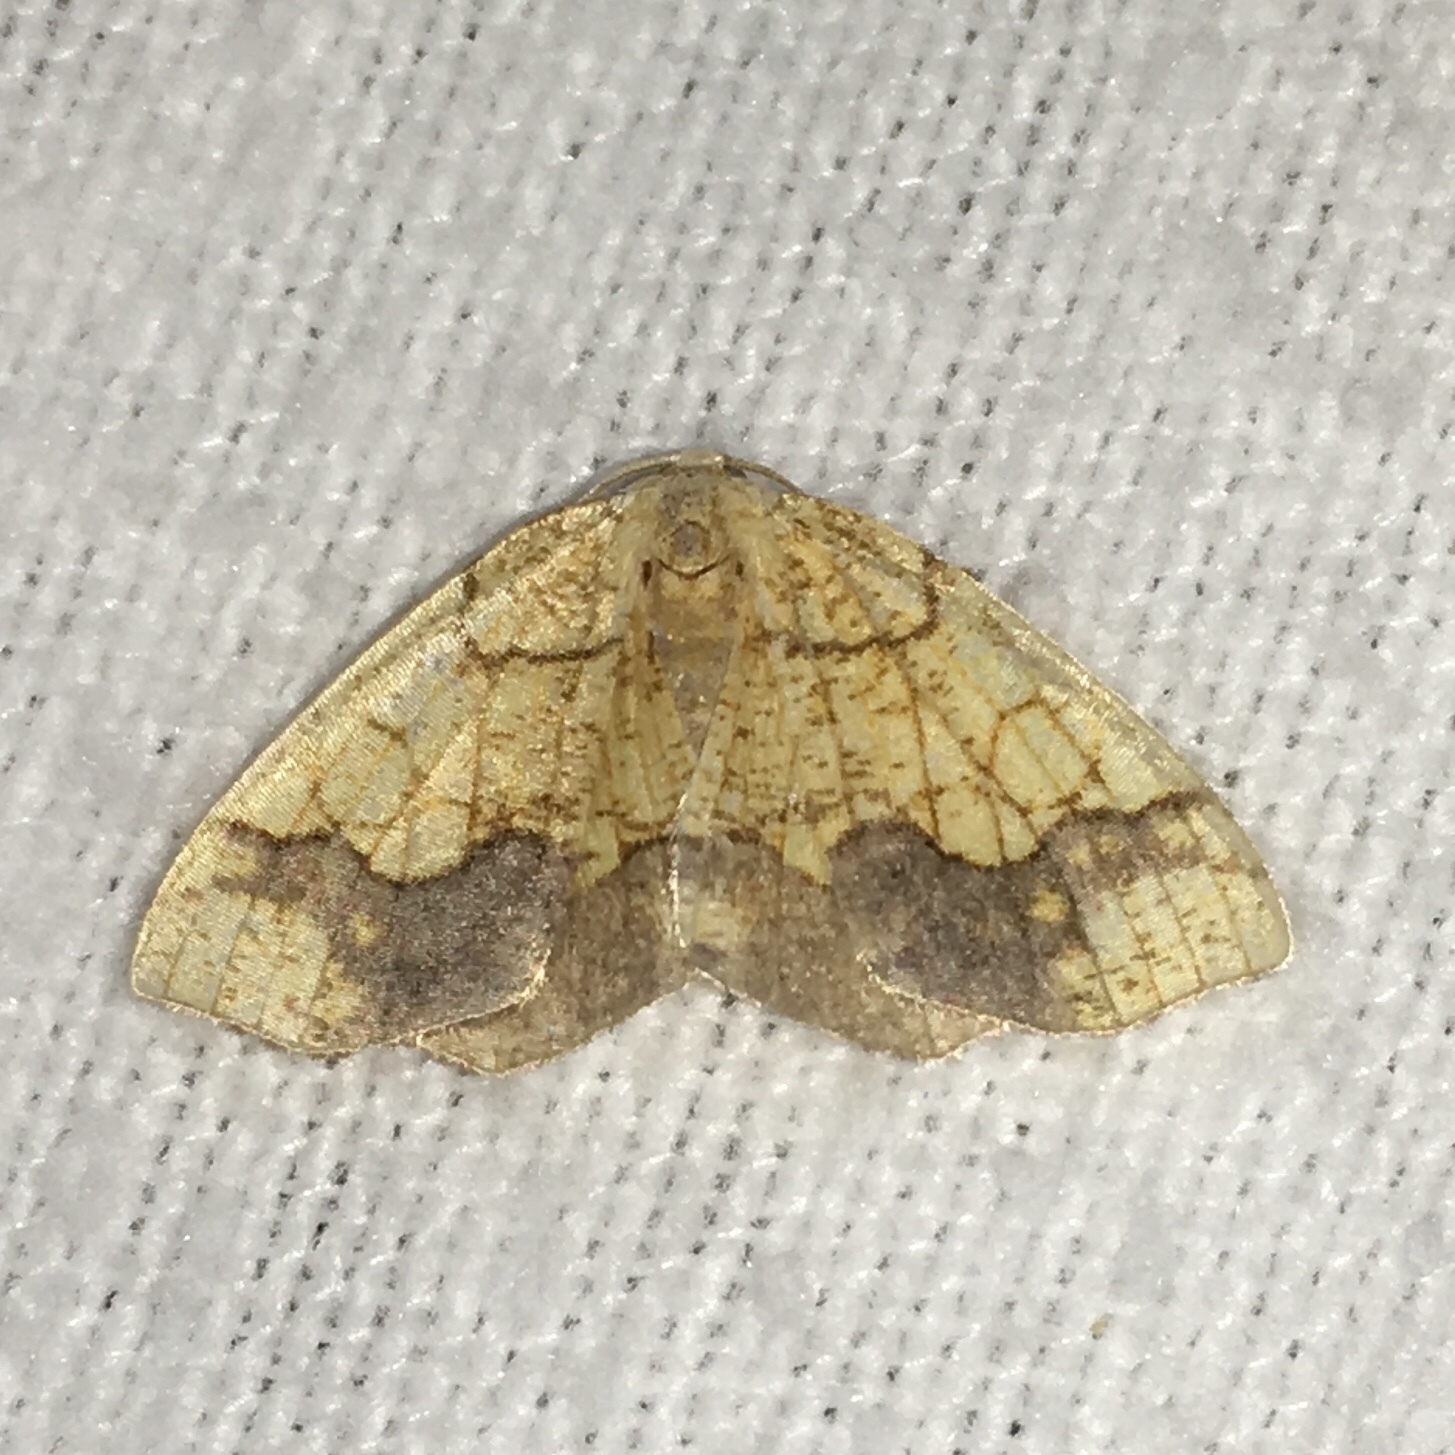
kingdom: Animalia
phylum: Arthropoda
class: Insecta
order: Lepidoptera
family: Geometridae
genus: Nematocampa
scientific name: Nematocampa resistaria
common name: Horned spanworm moth
